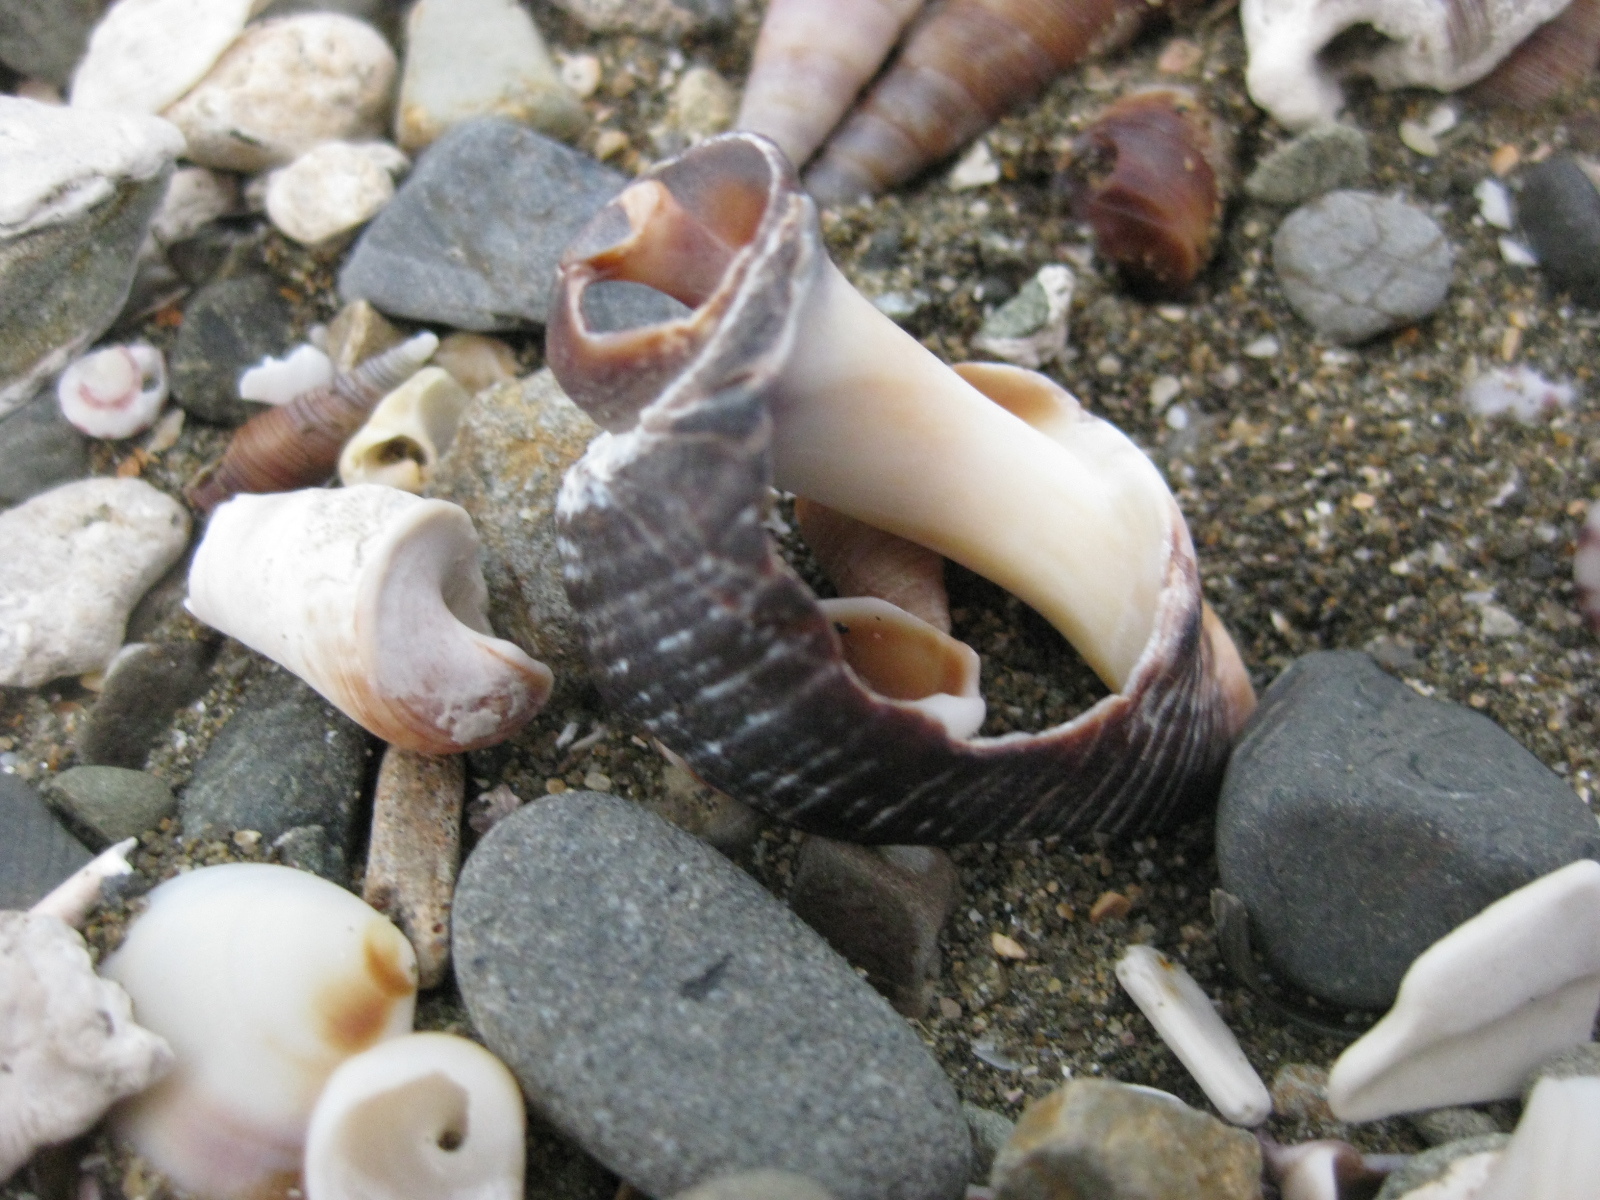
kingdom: Animalia
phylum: Mollusca
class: Gastropoda
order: Neogastropoda
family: Muricidae
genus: Haustrum
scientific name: Haustrum haustorium
